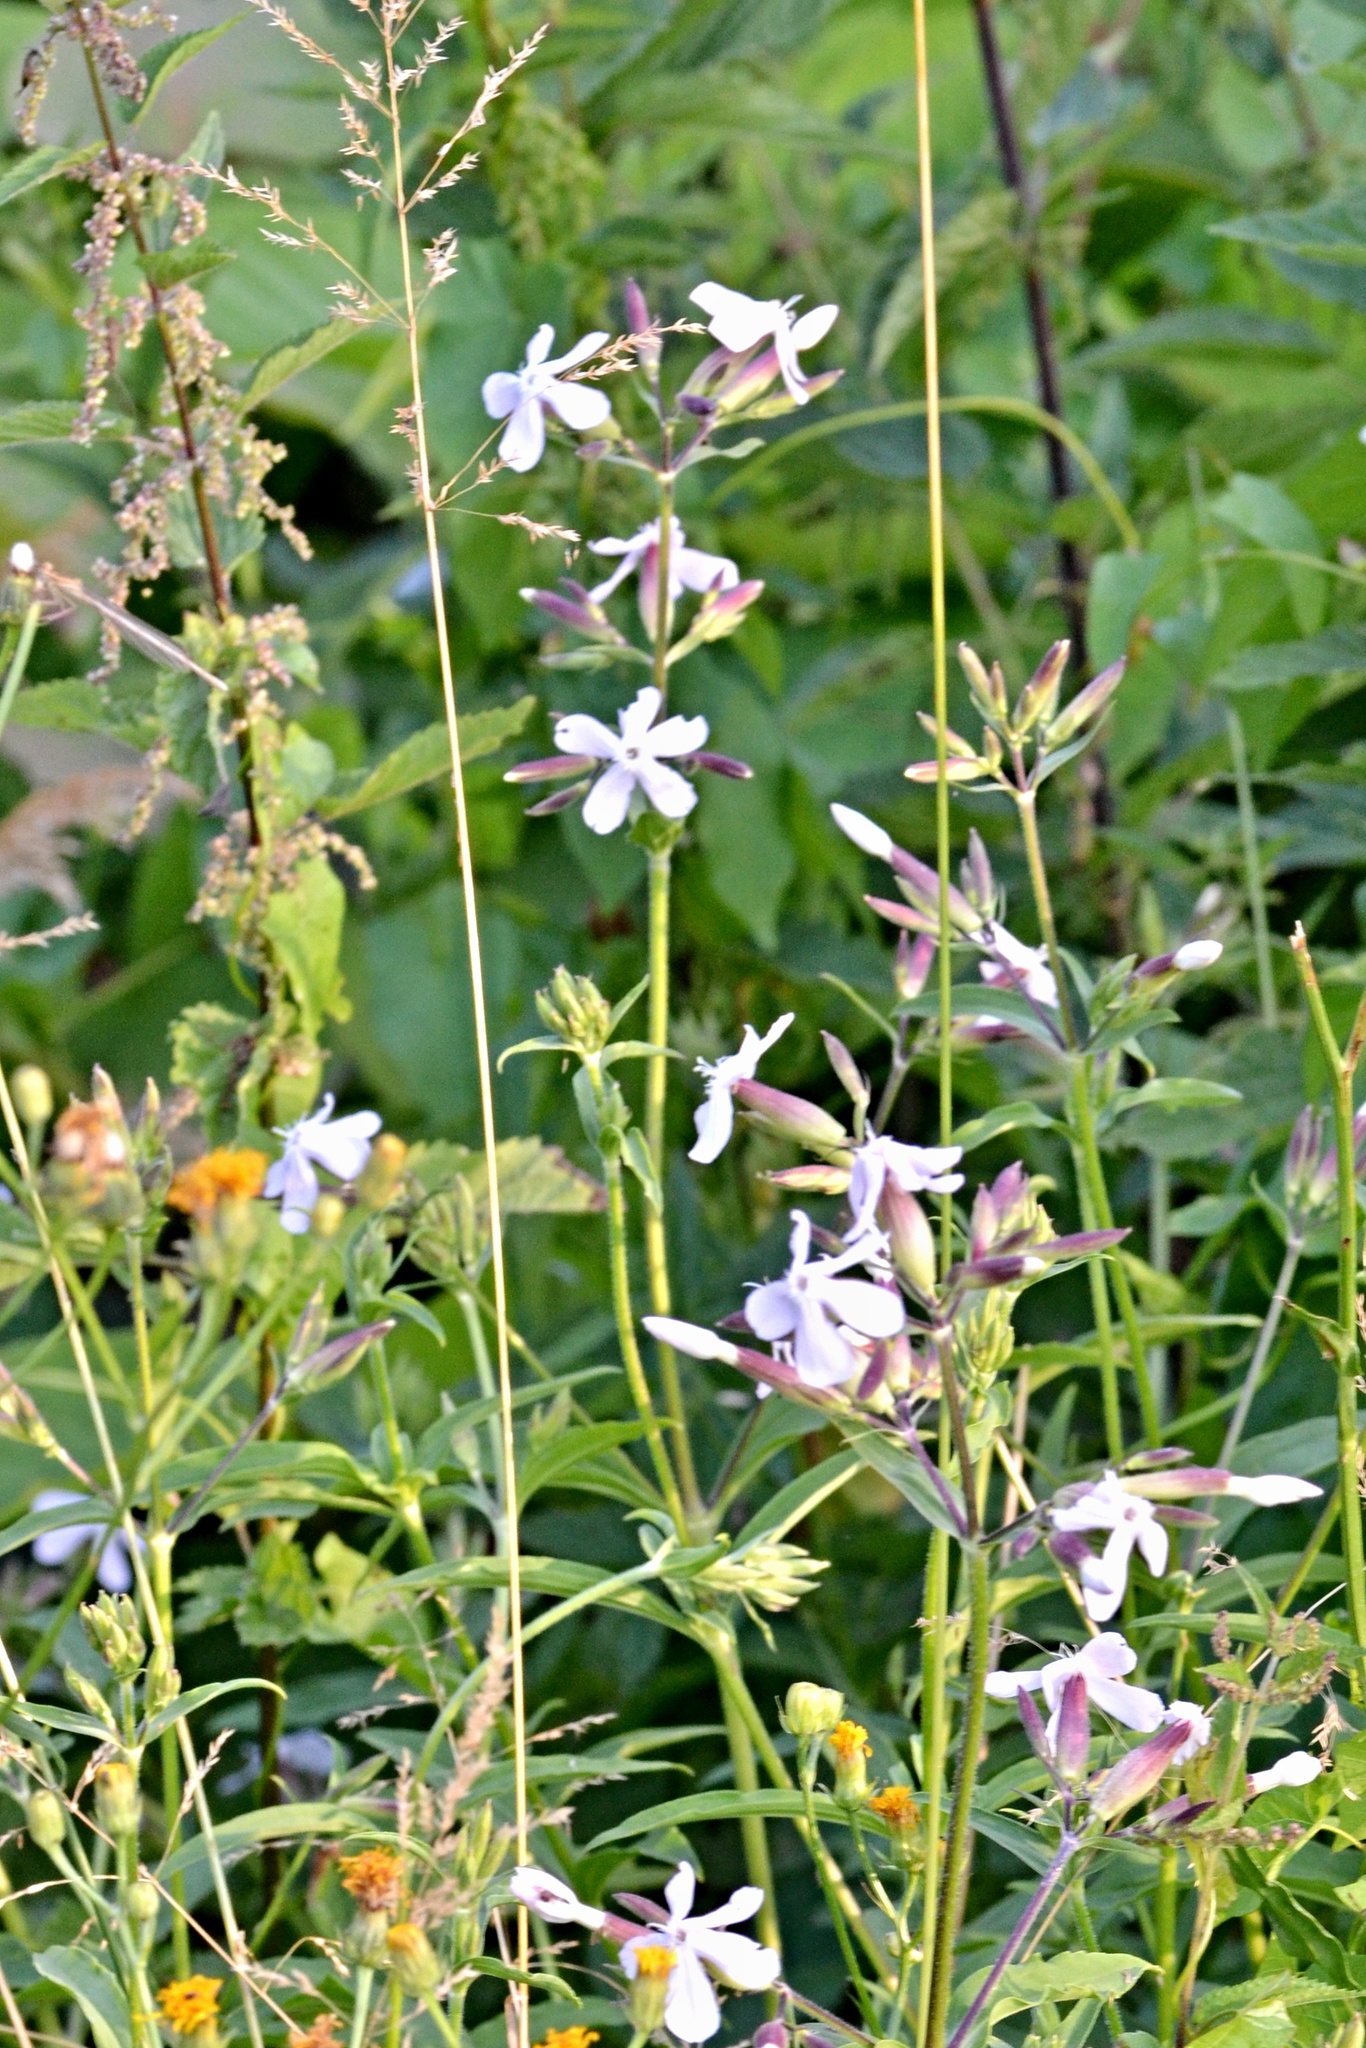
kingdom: Plantae
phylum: Tracheophyta
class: Magnoliopsida
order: Caryophyllales
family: Caryophyllaceae
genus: Saponaria
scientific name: Saponaria officinalis
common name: Soapwort
